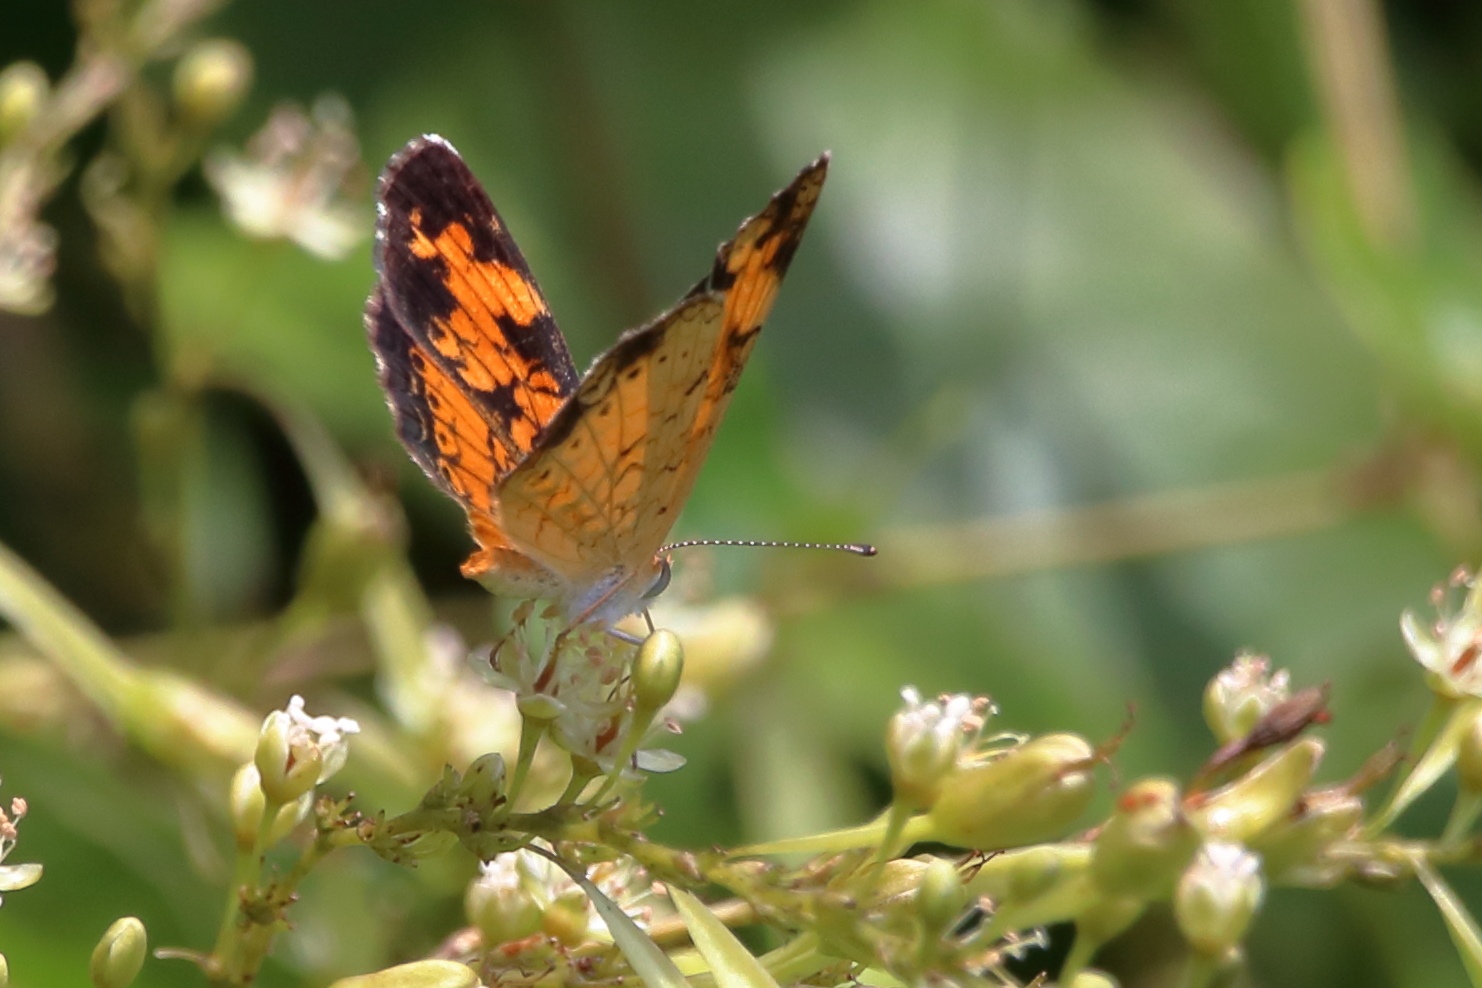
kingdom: Animalia
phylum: Arthropoda
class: Insecta
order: Lepidoptera
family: Nymphalidae
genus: Phyciodes
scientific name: Phyciodes tharos
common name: Pearl crescent
